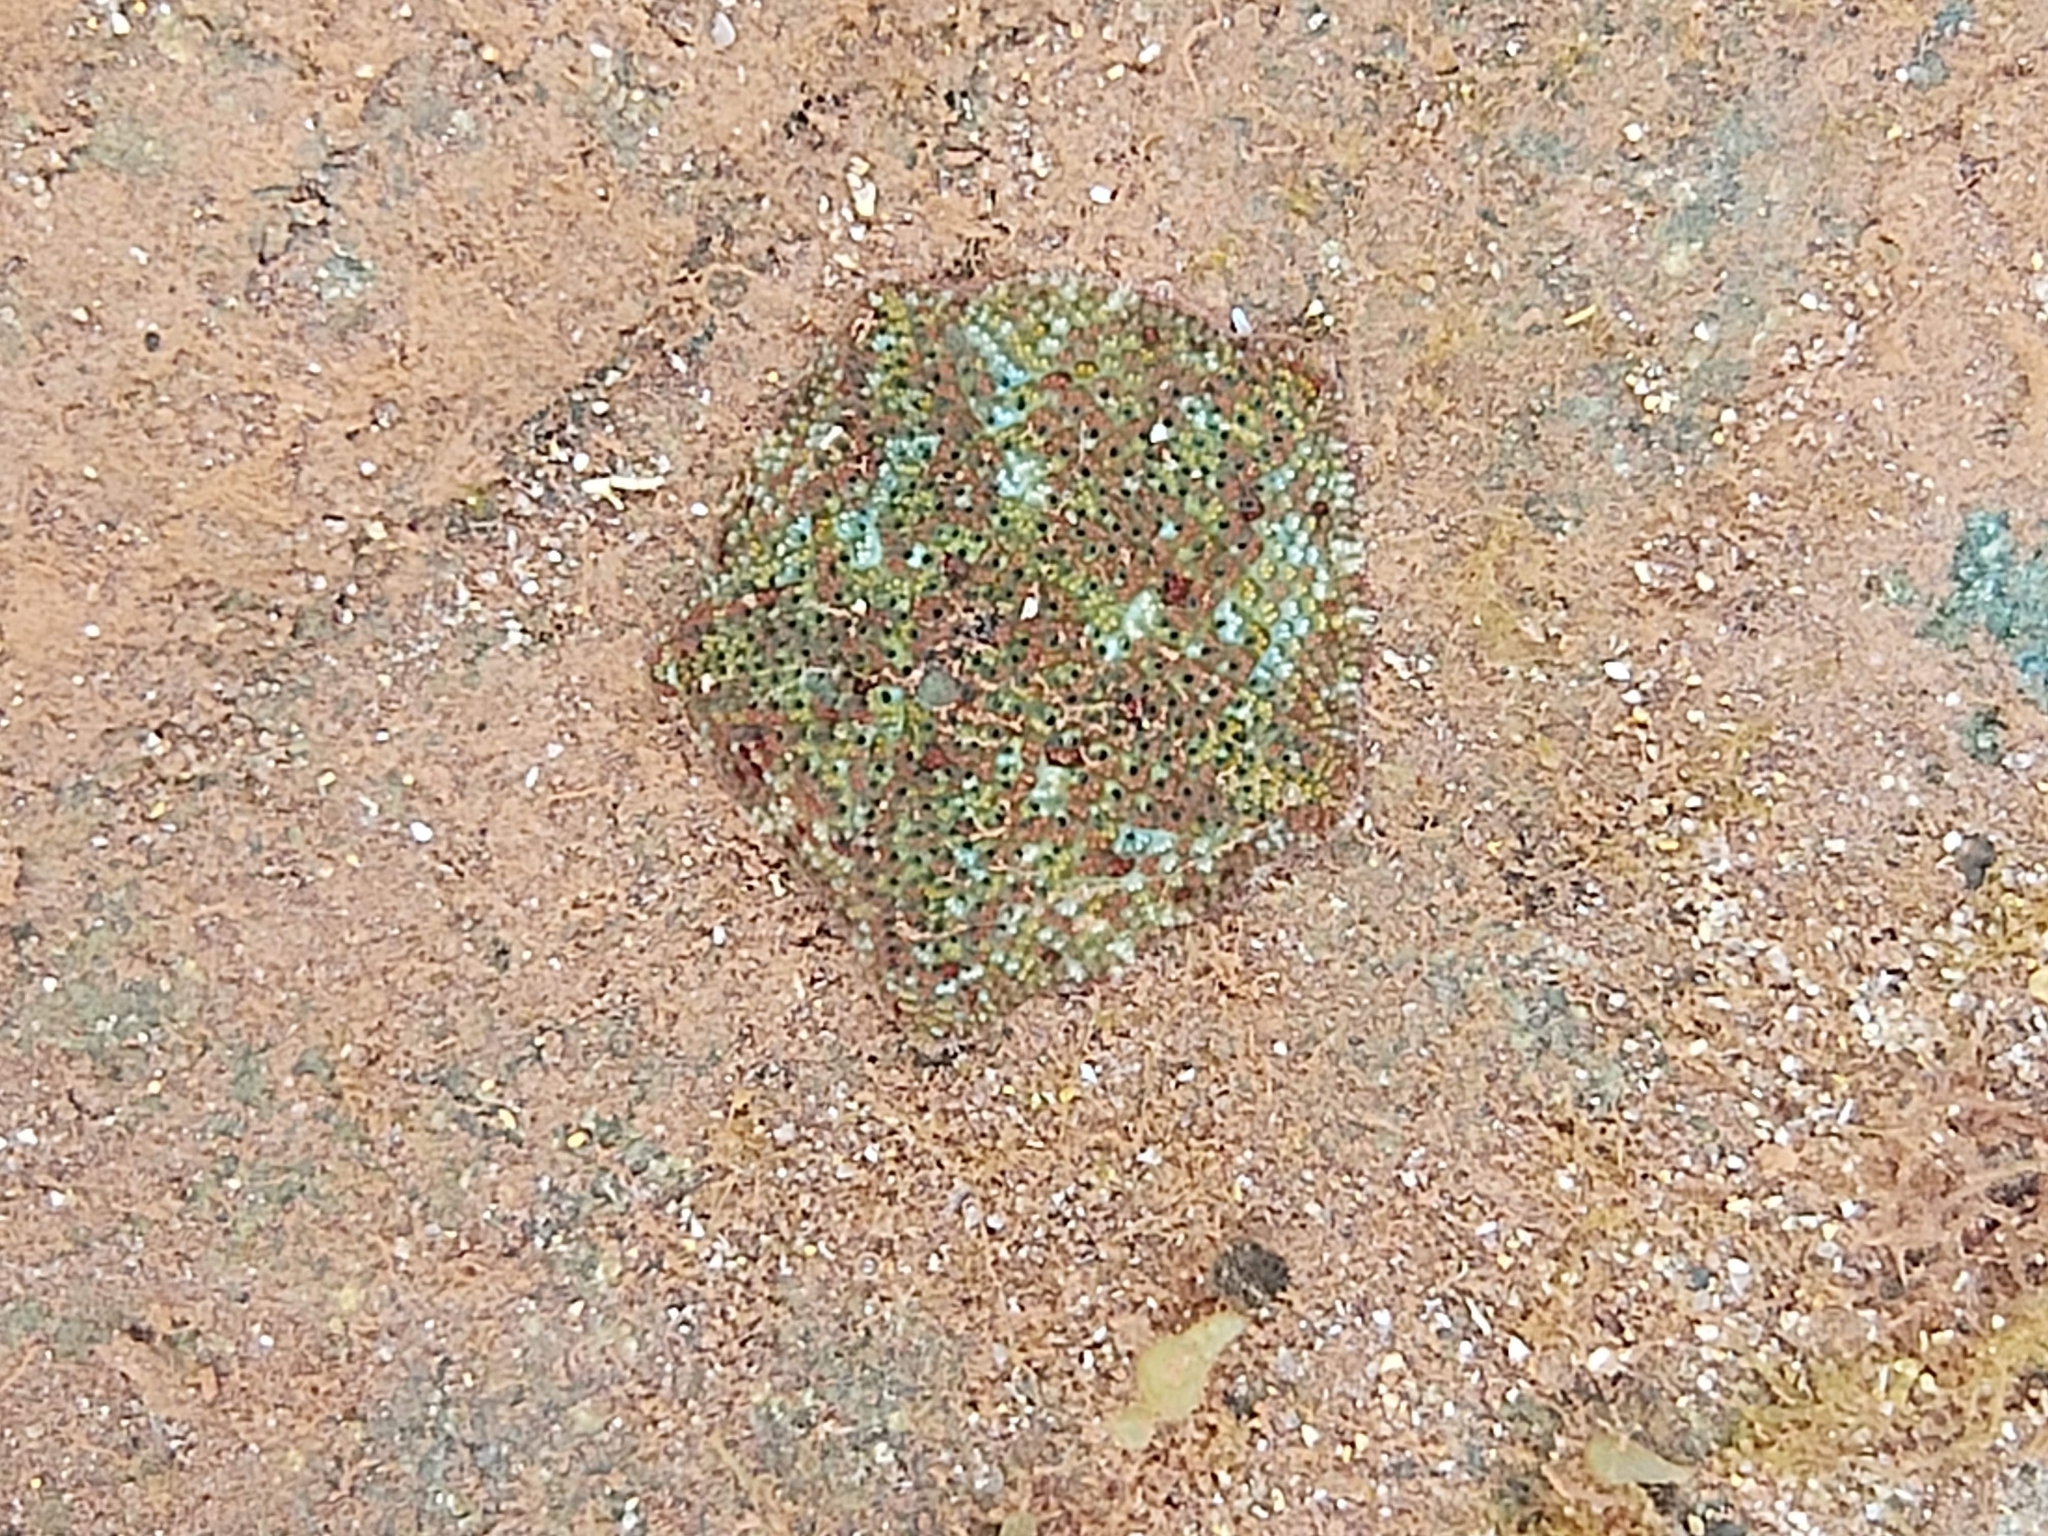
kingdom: Animalia
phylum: Echinodermata
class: Asteroidea
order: Valvatida
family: Asterinidae
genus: Parvulastra
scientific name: Parvulastra exigua
